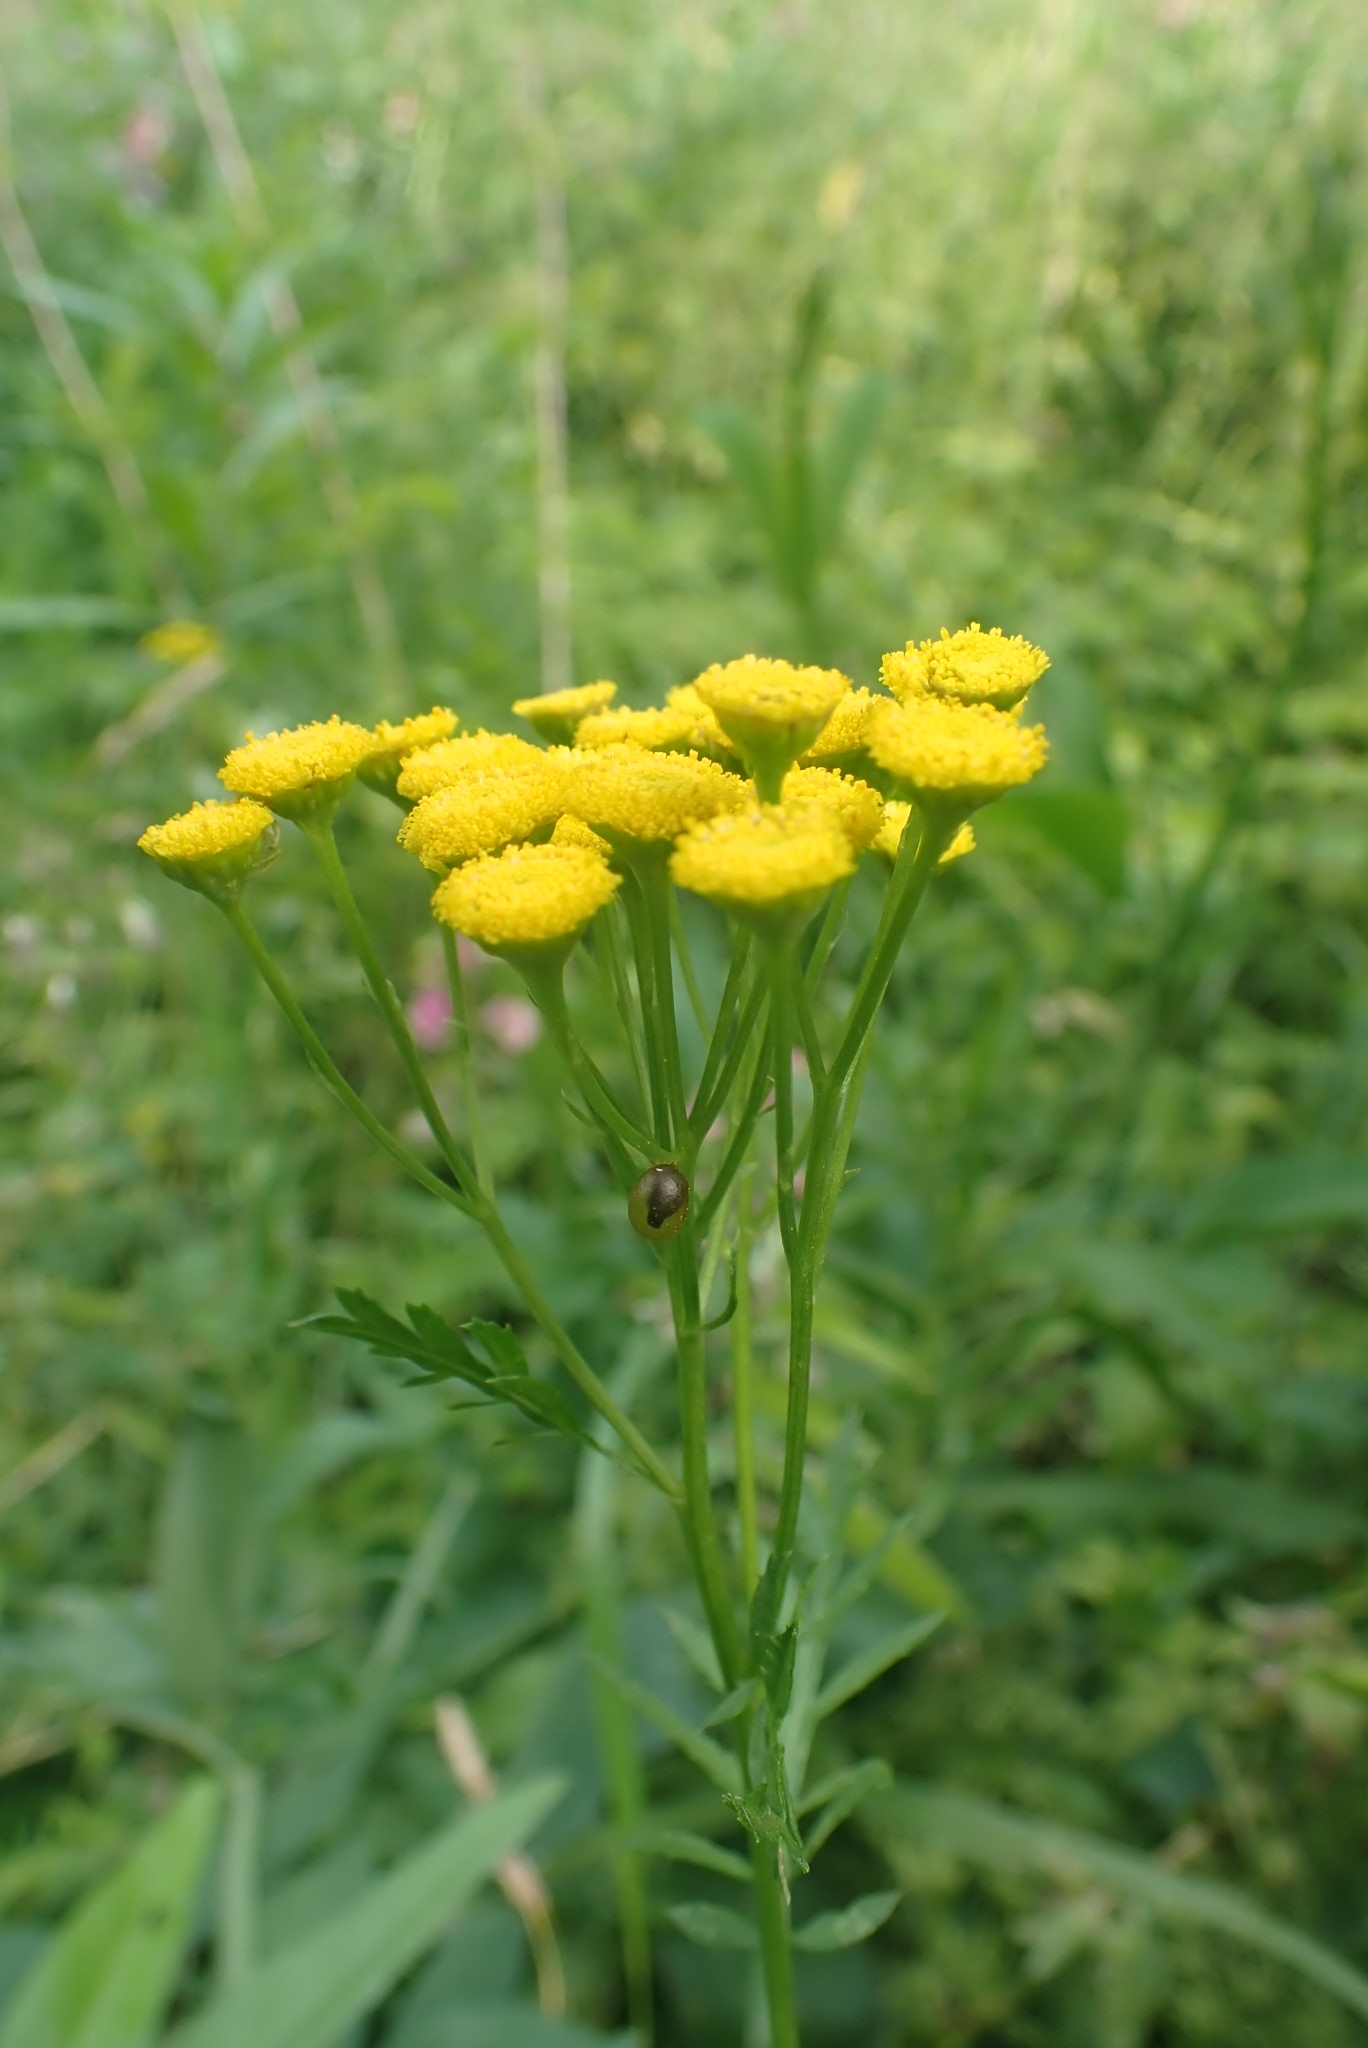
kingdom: Plantae
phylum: Tracheophyta
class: Magnoliopsida
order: Asterales
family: Asteraceae
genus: Tanacetum
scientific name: Tanacetum vulgare
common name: Common tansy
